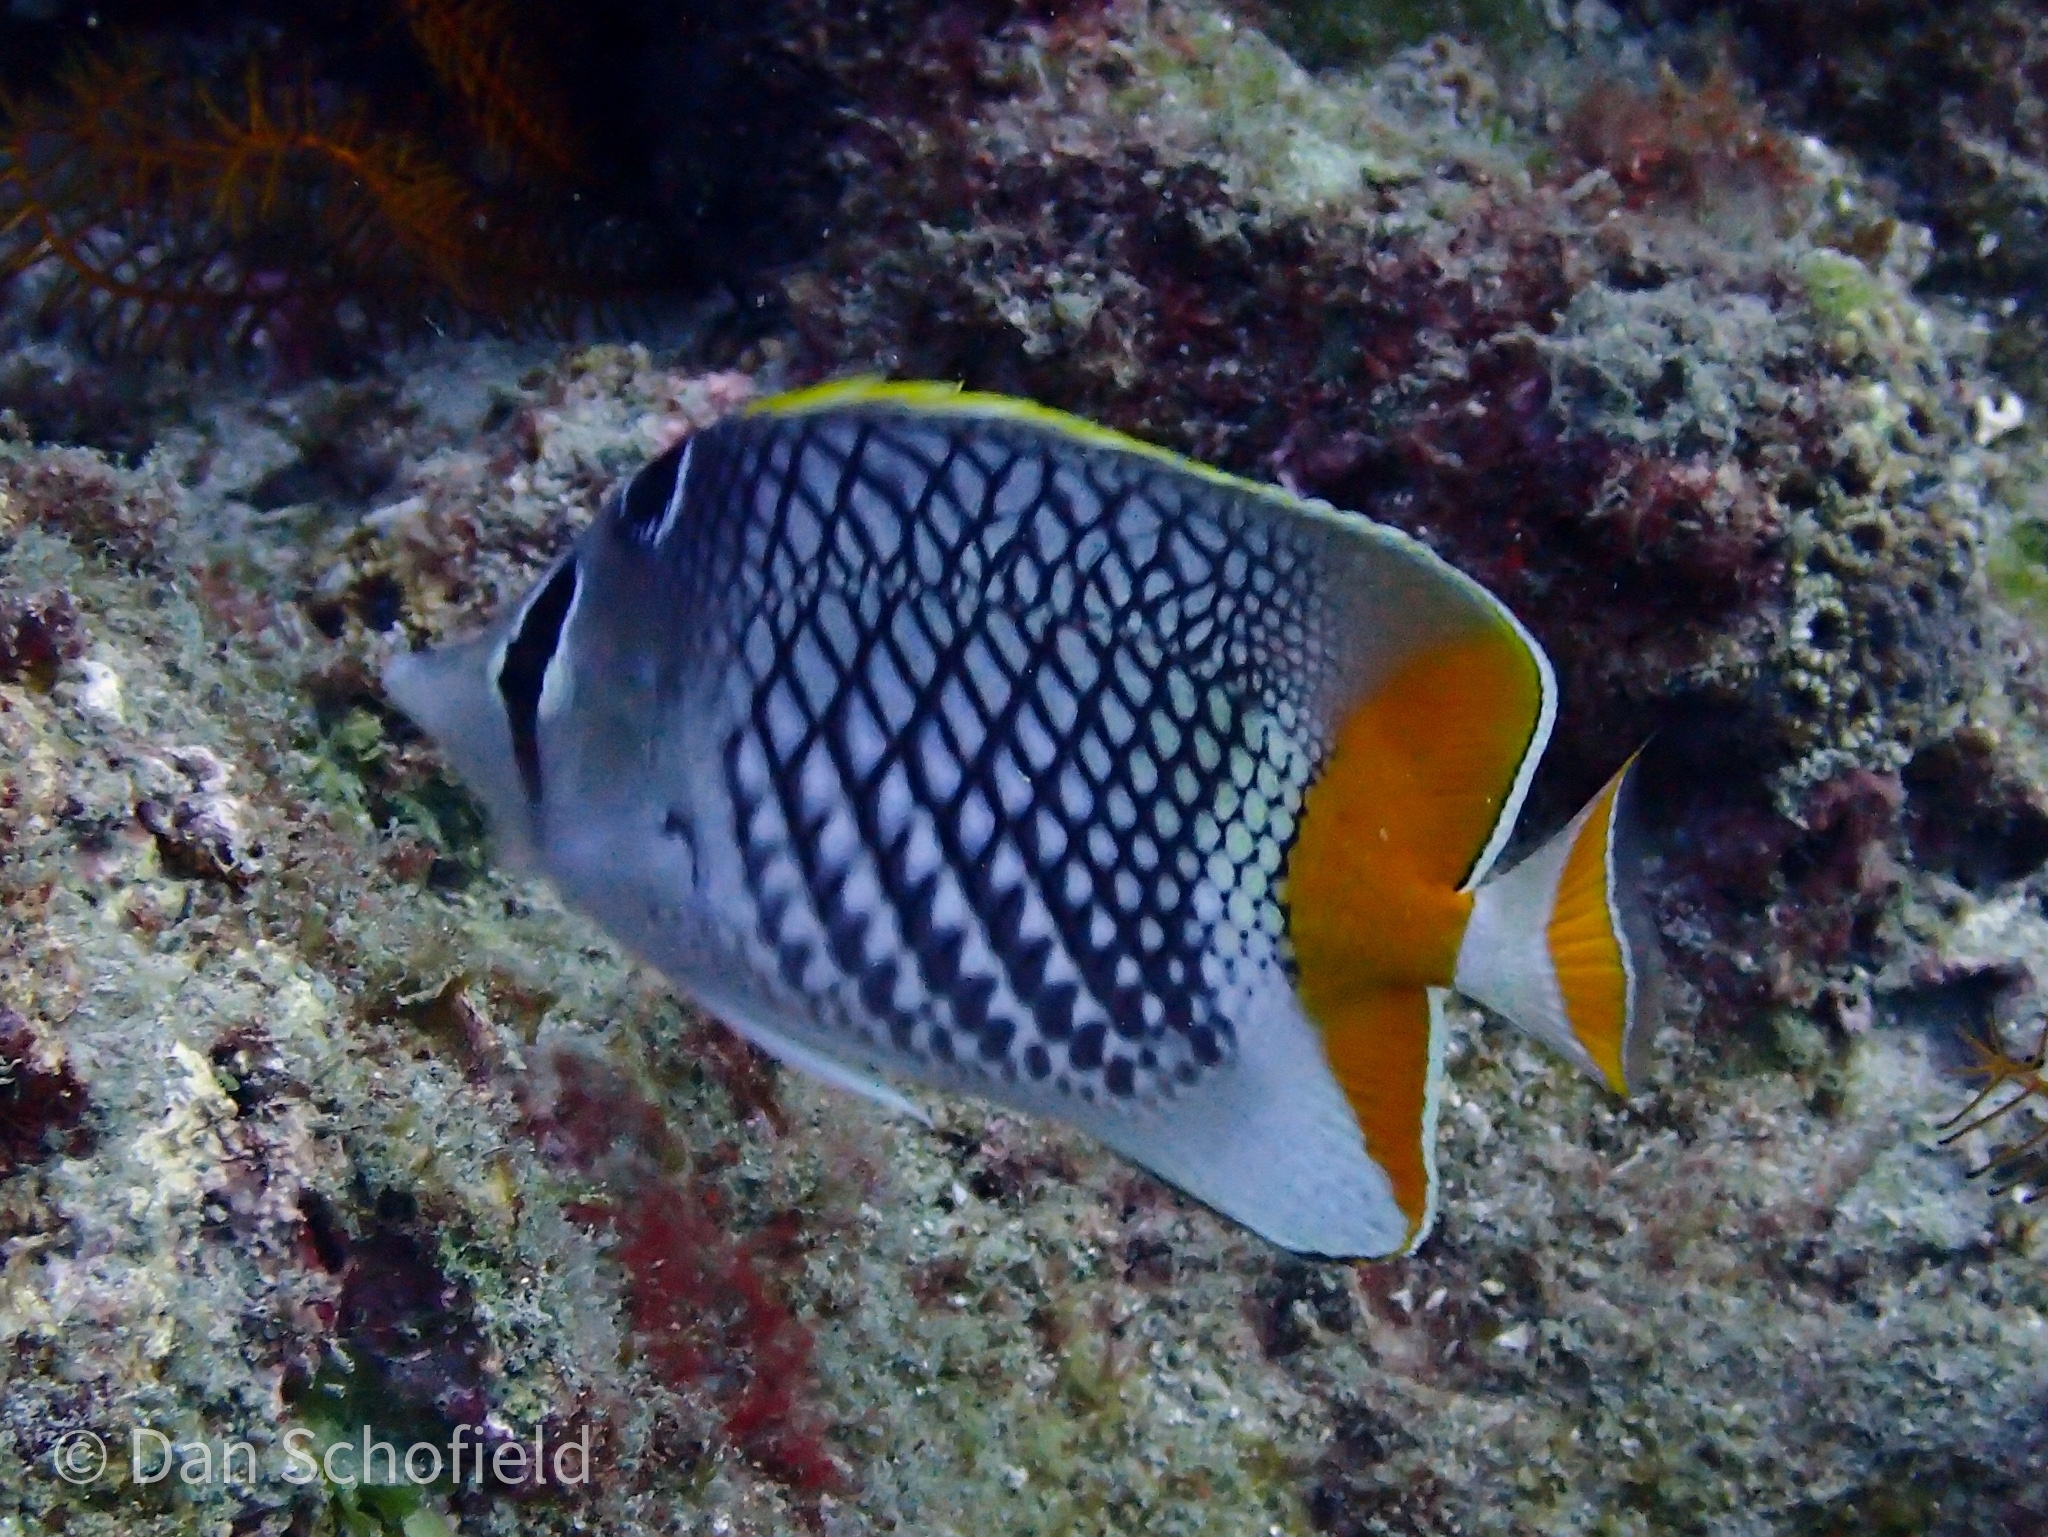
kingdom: Animalia
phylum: Chordata
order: Perciformes
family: Chaetodontidae
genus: Chaetodon
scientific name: Chaetodon xanthurus
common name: Philippine chevron butterflyfish
